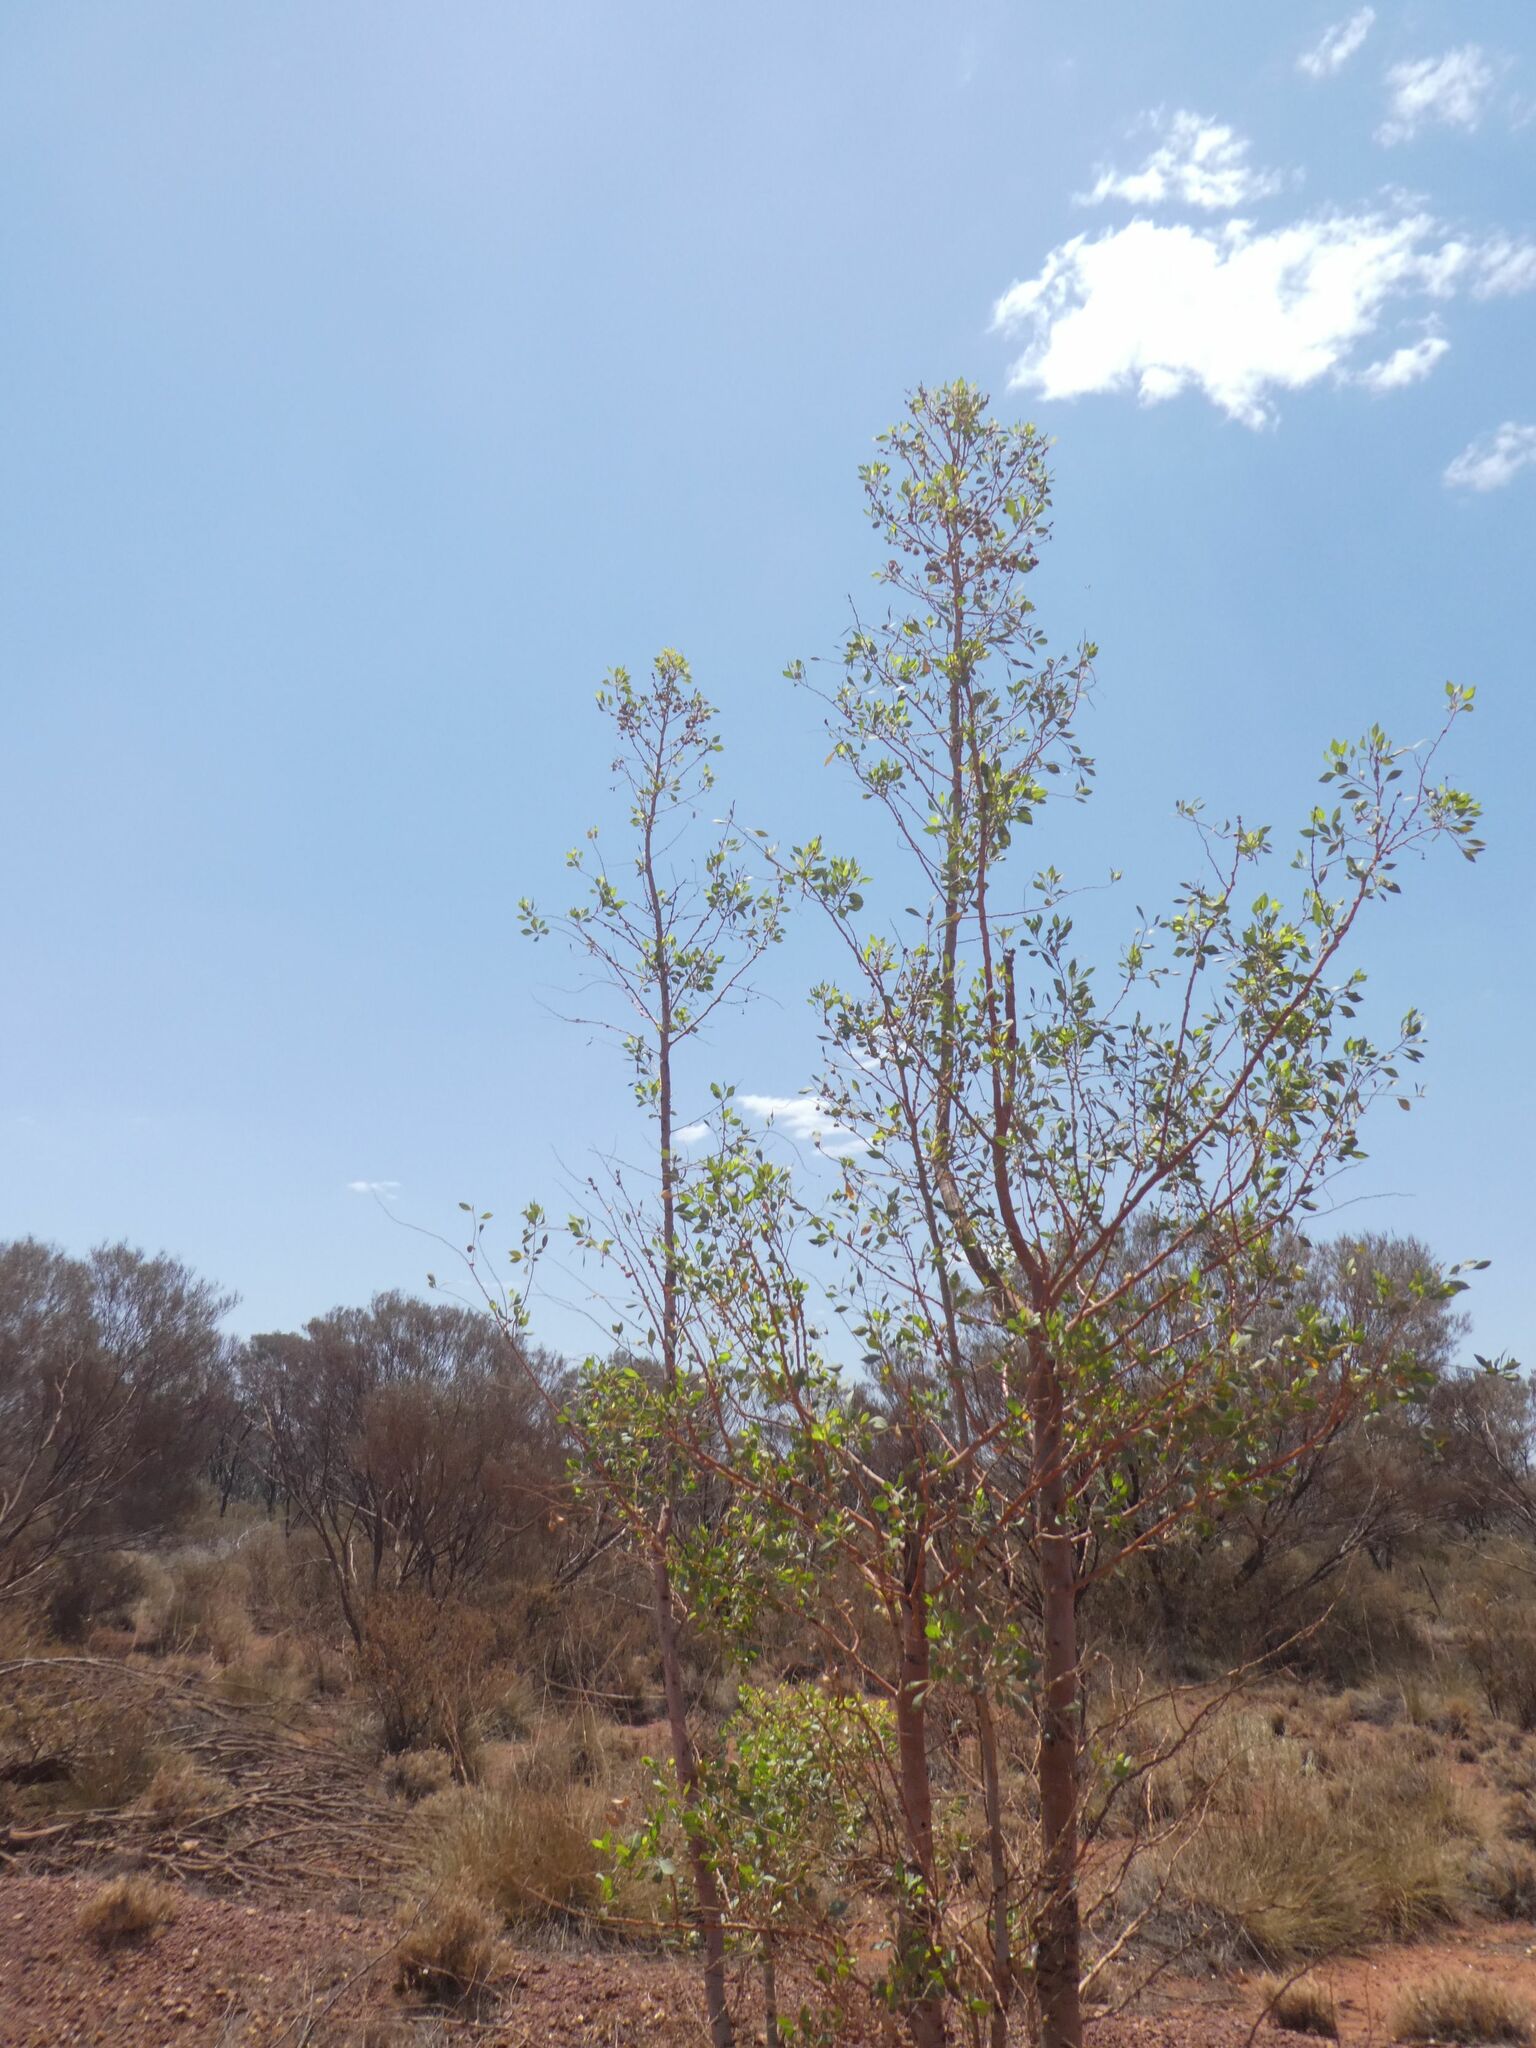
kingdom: Plantae
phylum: Tracheophyta
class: Magnoliopsida
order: Brassicales
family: Gyrostemonaceae
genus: Codonocarpus
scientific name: Codonocarpus cotinifolius
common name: Mustardtree
